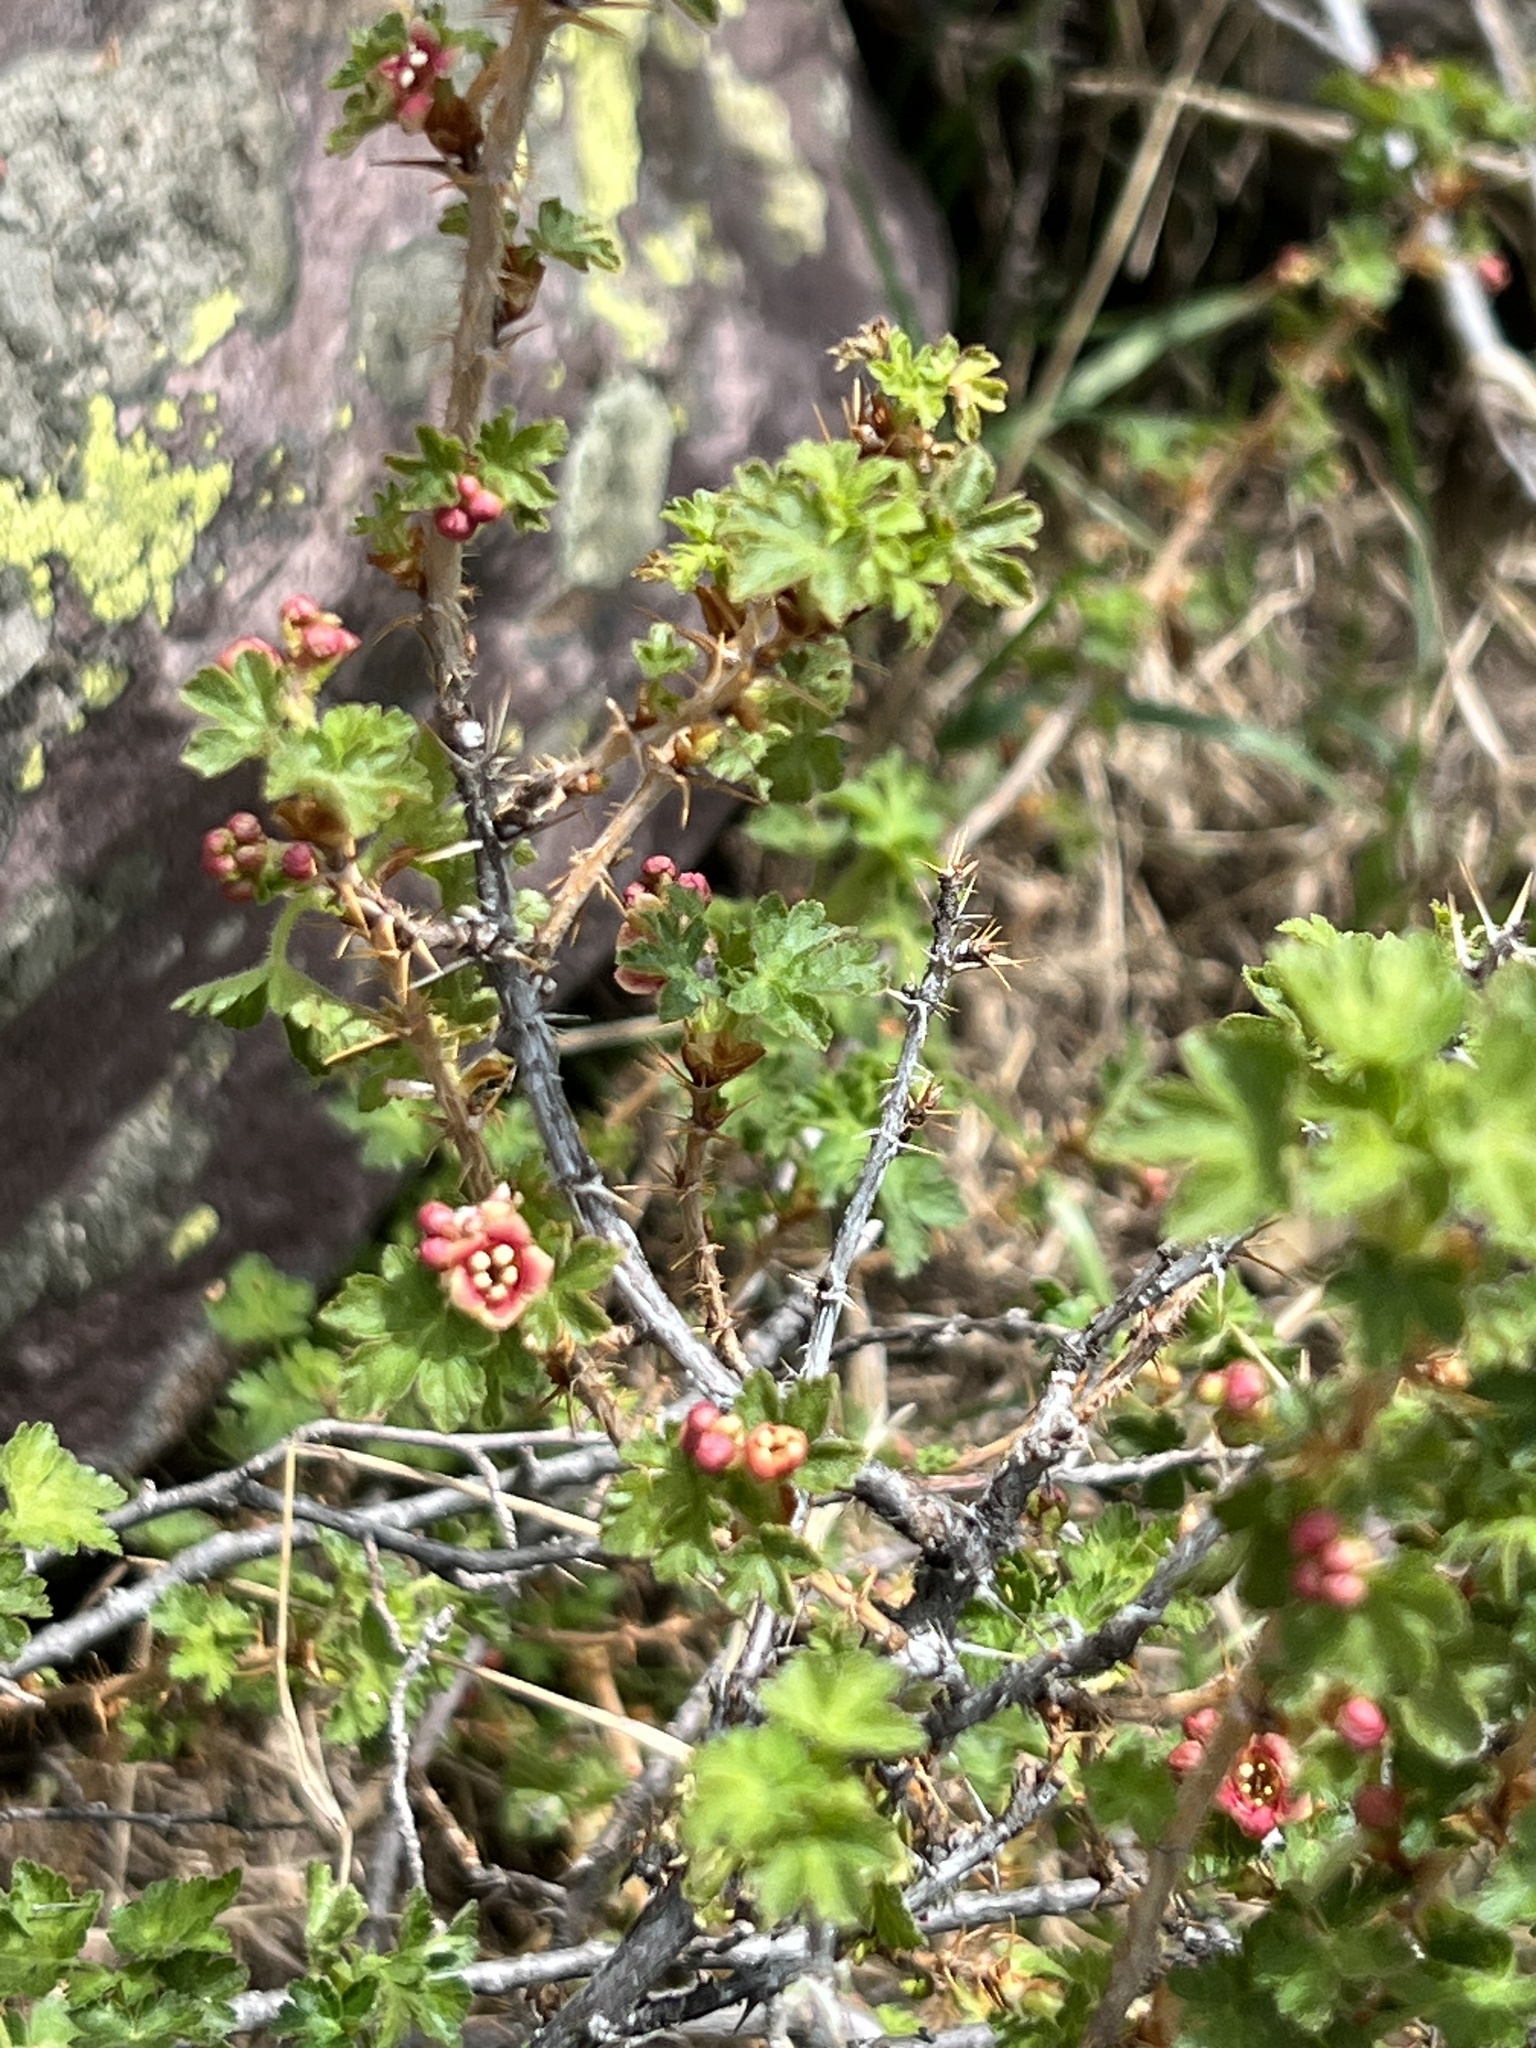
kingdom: Plantae
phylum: Tracheophyta
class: Magnoliopsida
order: Saxifragales
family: Grossulariaceae
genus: Ribes
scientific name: Ribes montigenum
